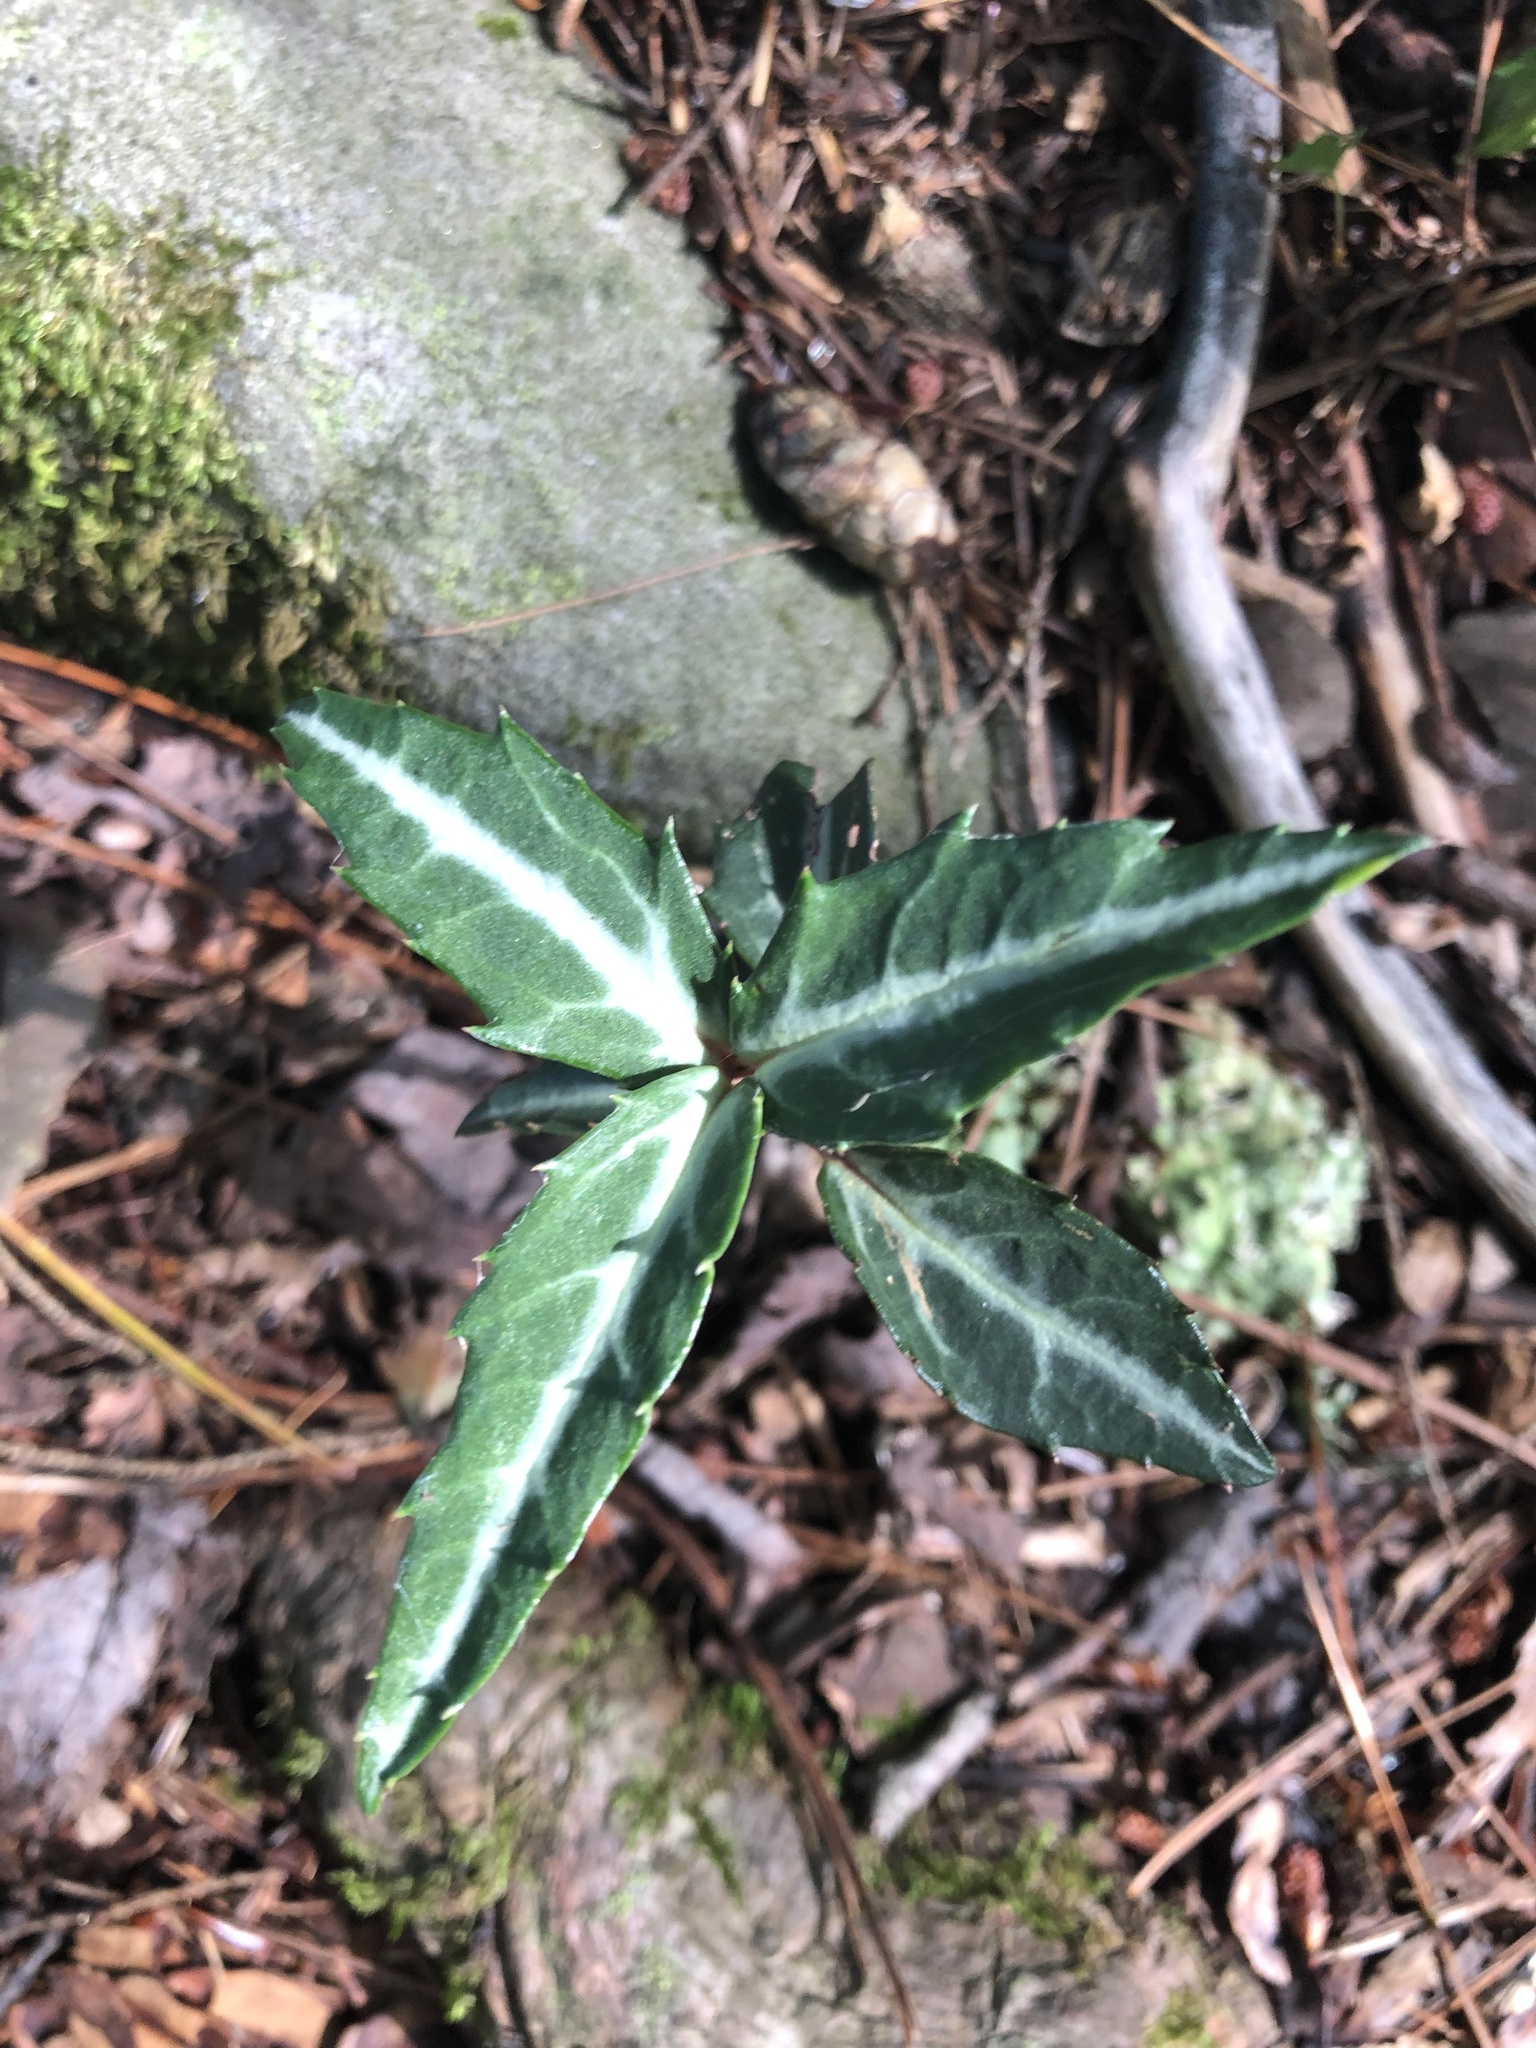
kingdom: Plantae
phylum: Tracheophyta
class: Magnoliopsida
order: Ericales
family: Ericaceae
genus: Chimaphila
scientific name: Chimaphila maculata
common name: Spotted pipsissewa
